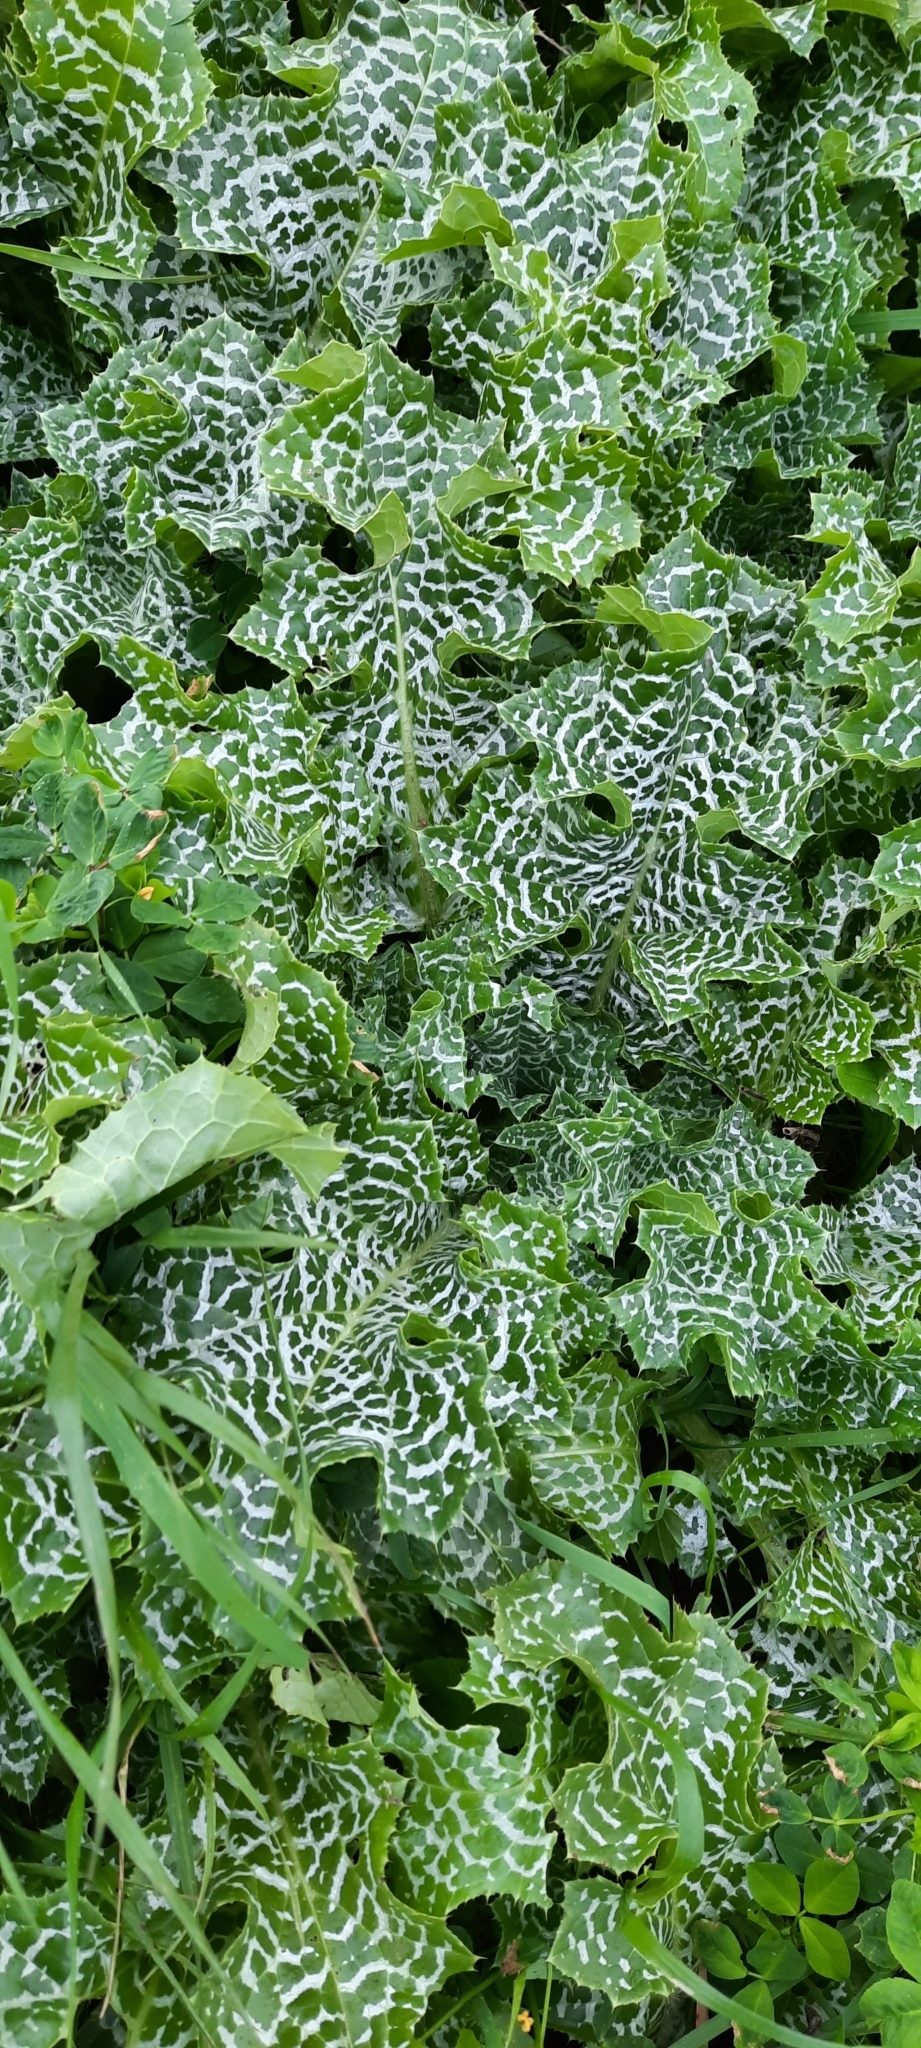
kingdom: Plantae
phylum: Tracheophyta
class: Magnoliopsida
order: Asterales
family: Asteraceae
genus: Silybum
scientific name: Silybum marianum
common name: Milk thistle
